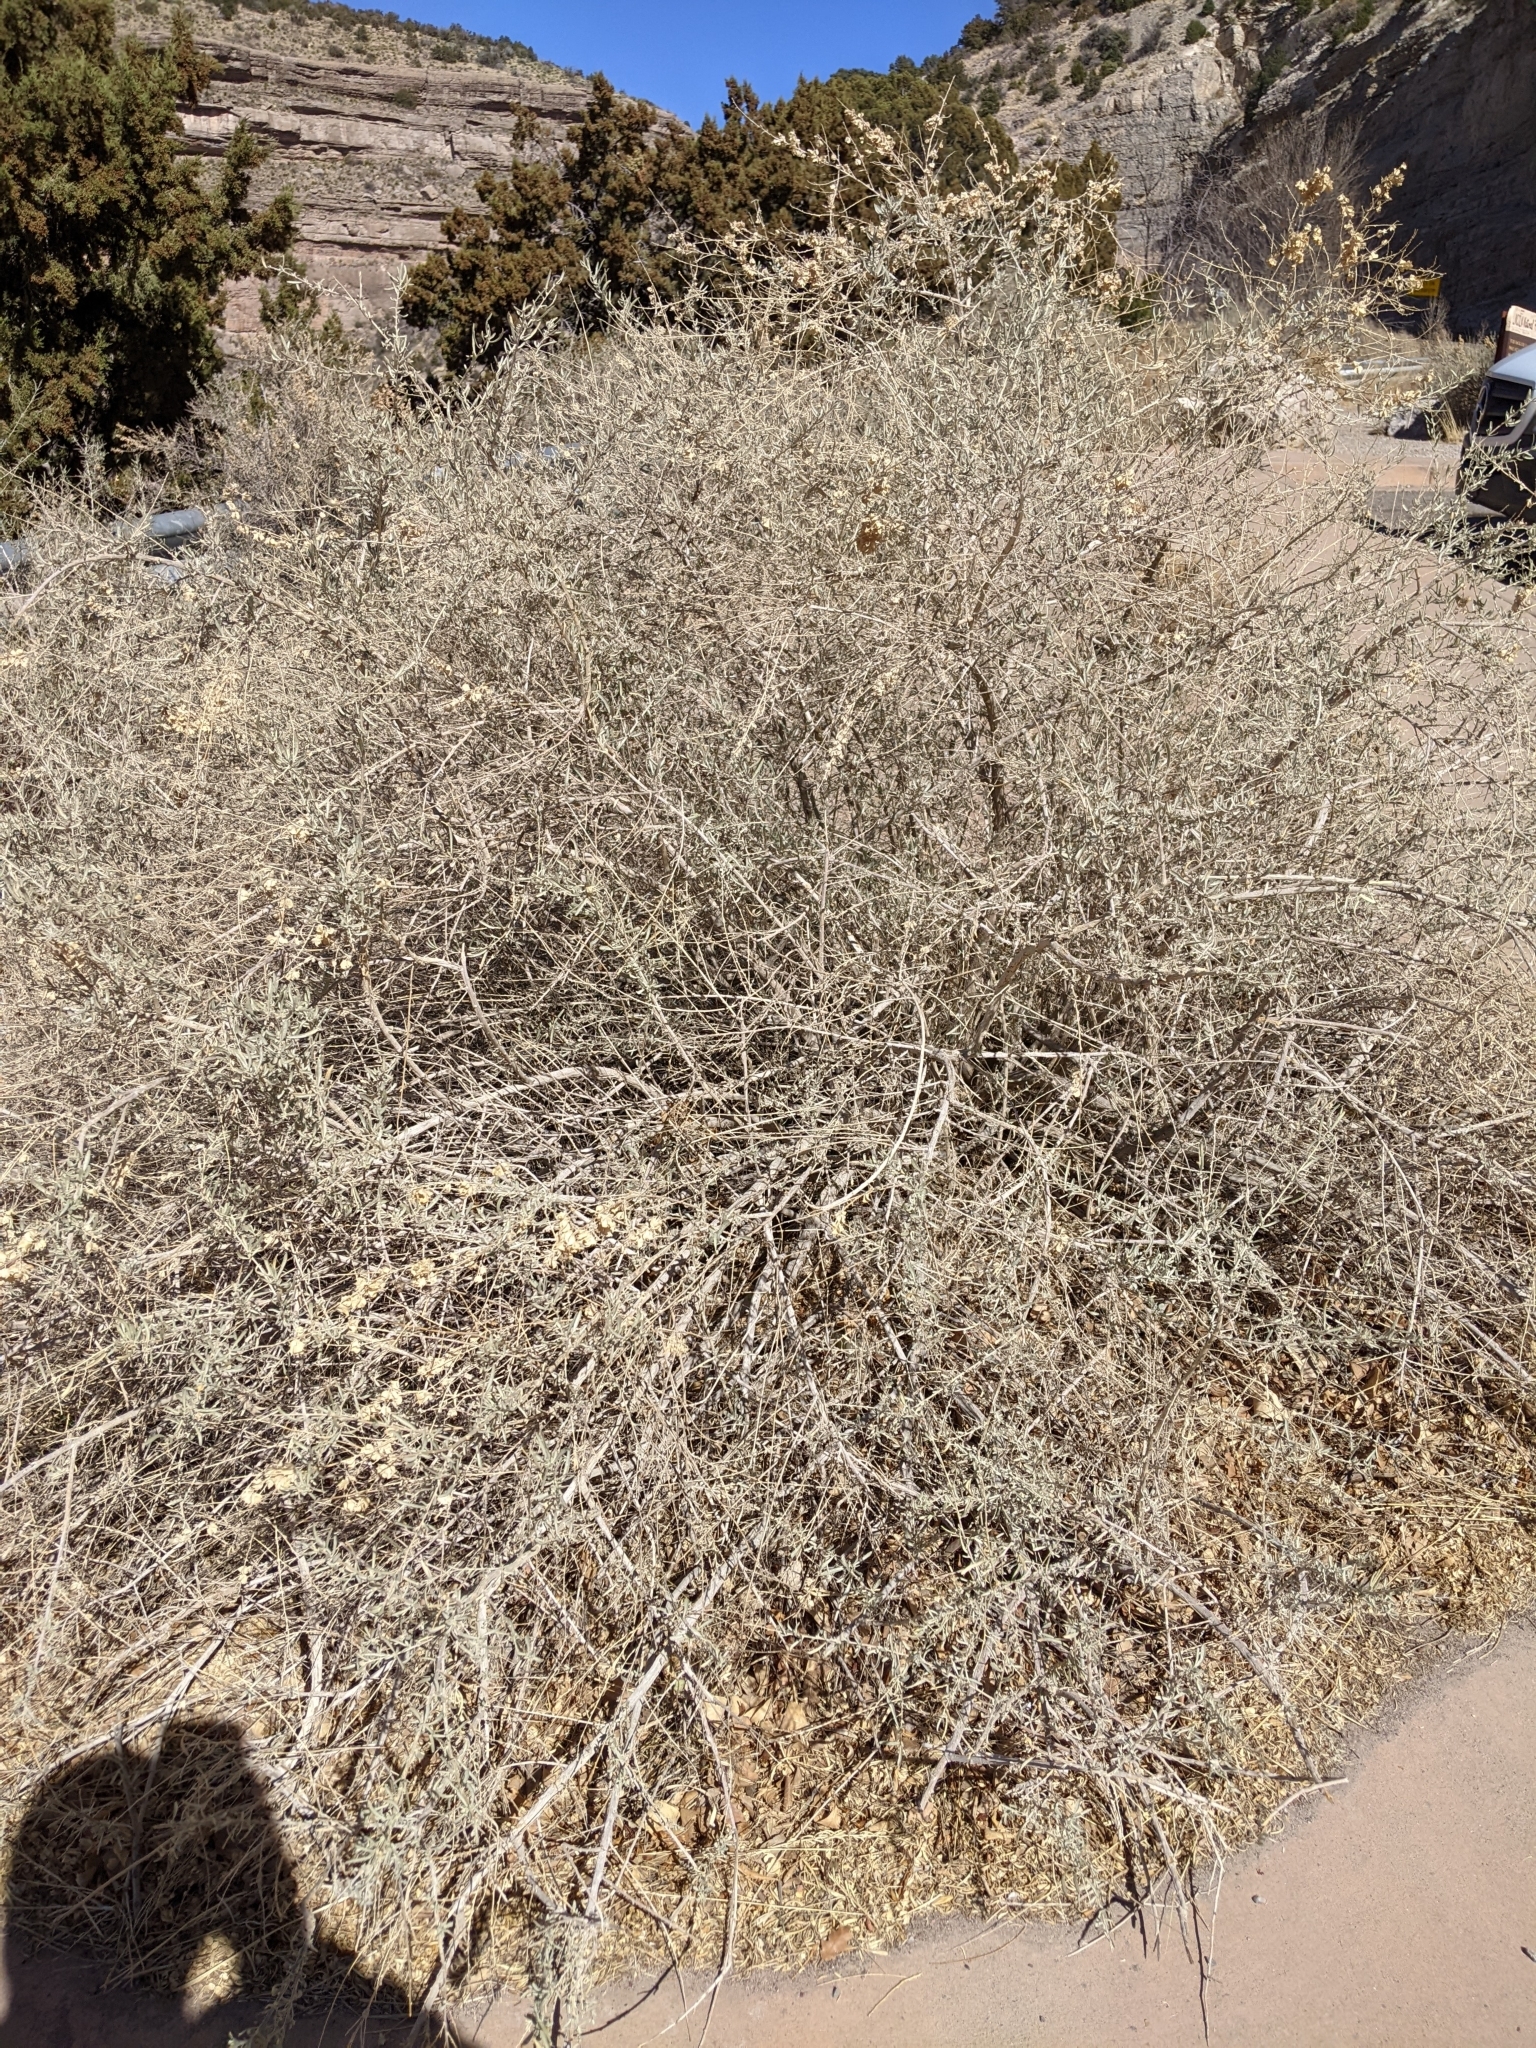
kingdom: Plantae
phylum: Tracheophyta
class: Magnoliopsida
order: Caryophyllales
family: Amaranthaceae
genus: Atriplex
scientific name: Atriplex canescens
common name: Four-wing saltbush
